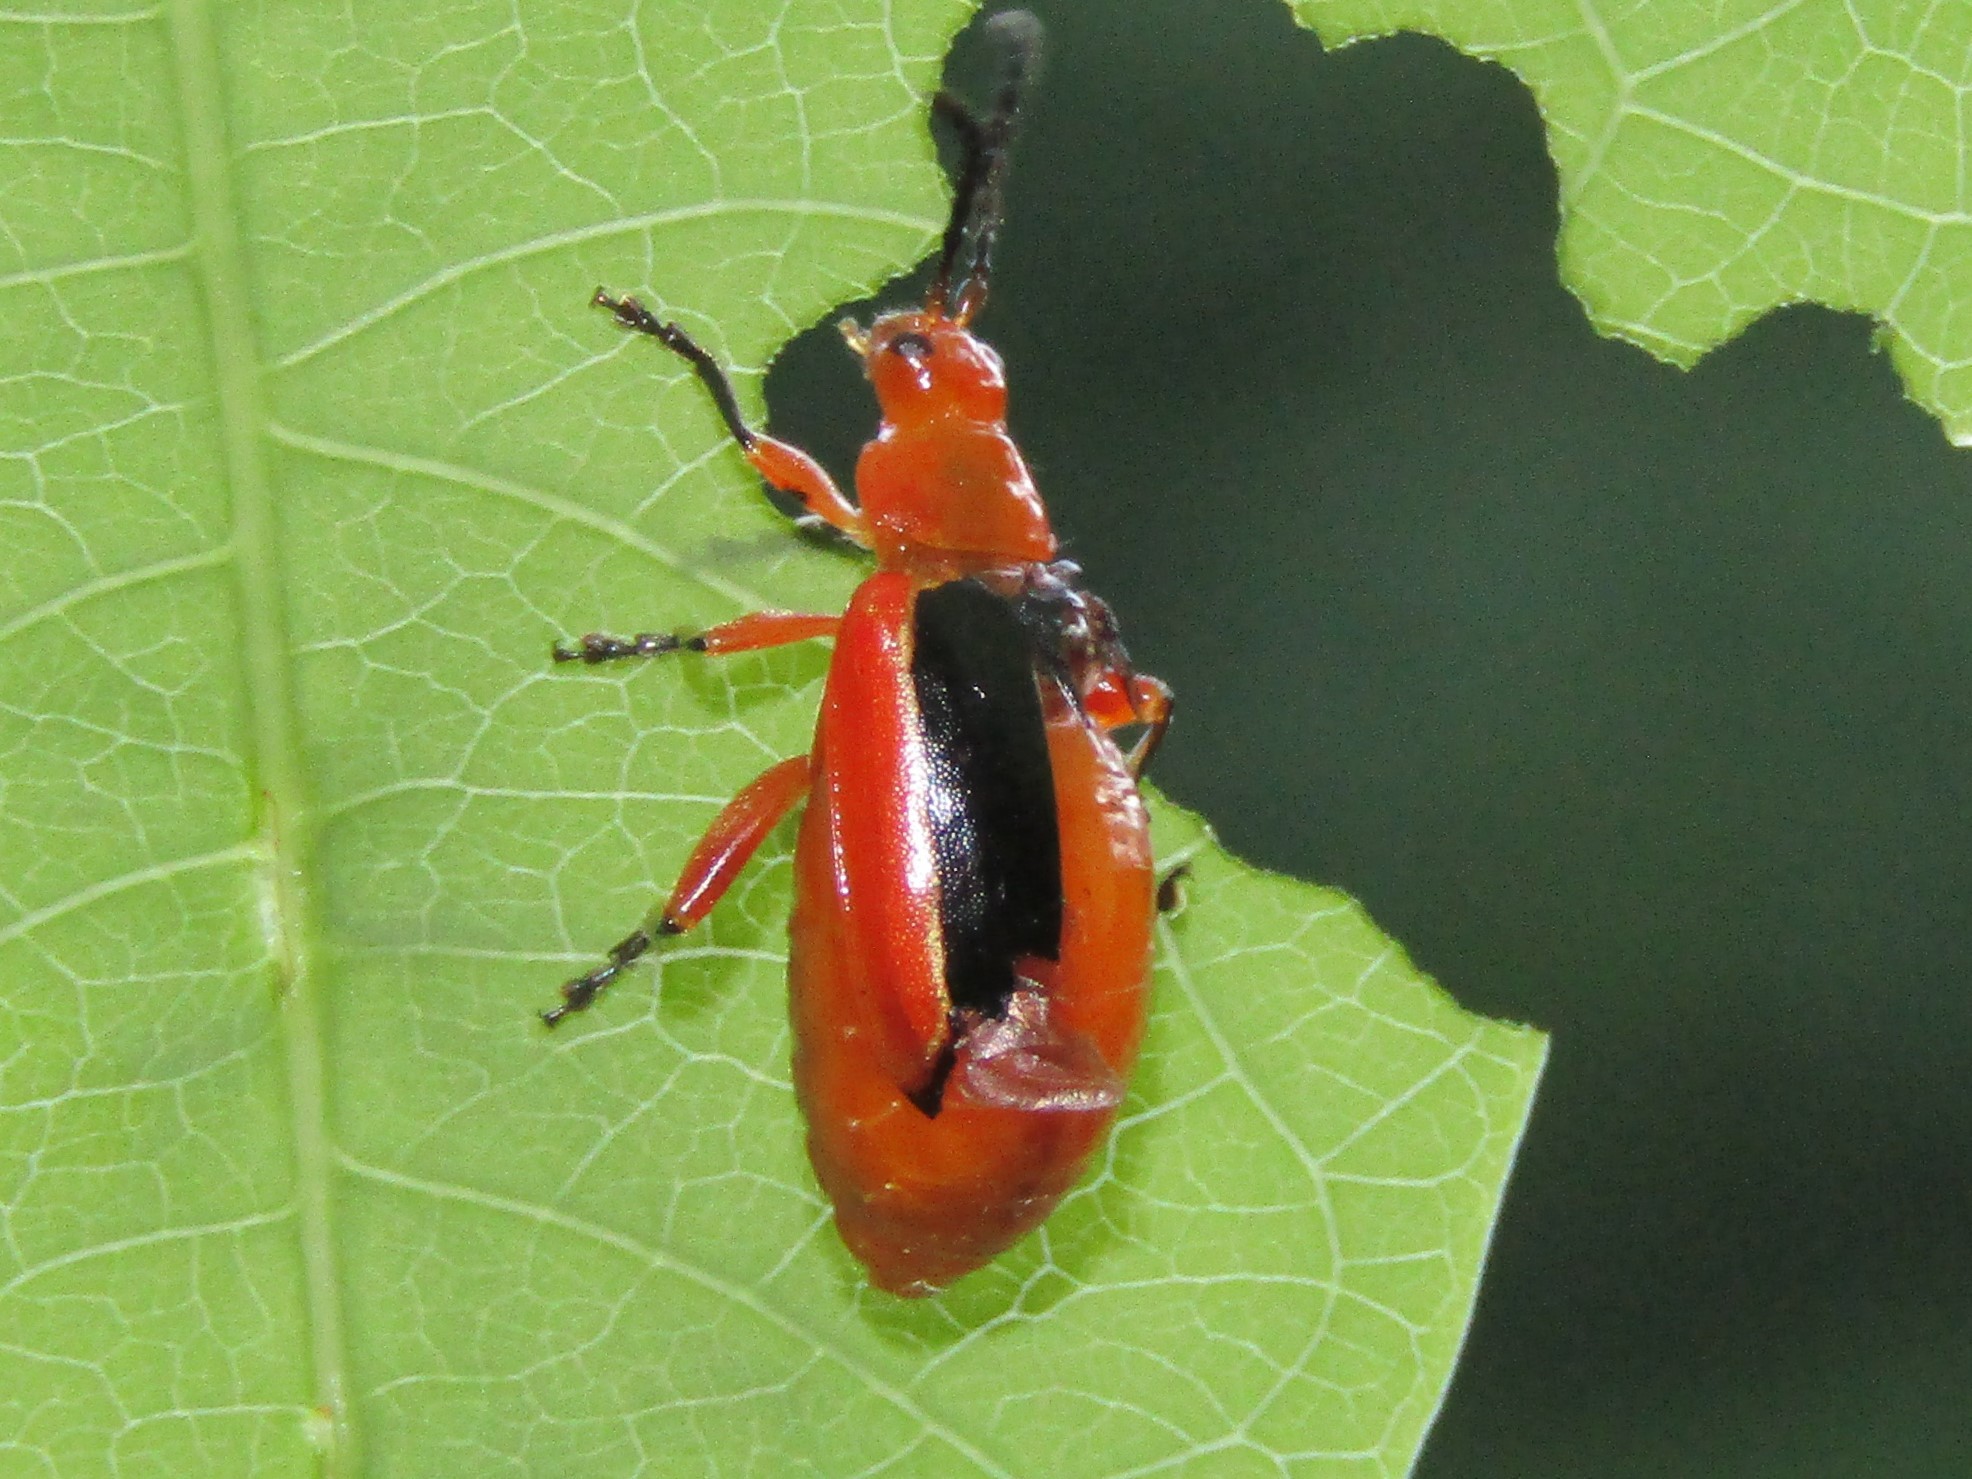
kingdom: Animalia
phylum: Arthropoda
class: Insecta
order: Coleoptera
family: Chrysomelidae
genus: Disonycha
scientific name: Disonycha discoidea
